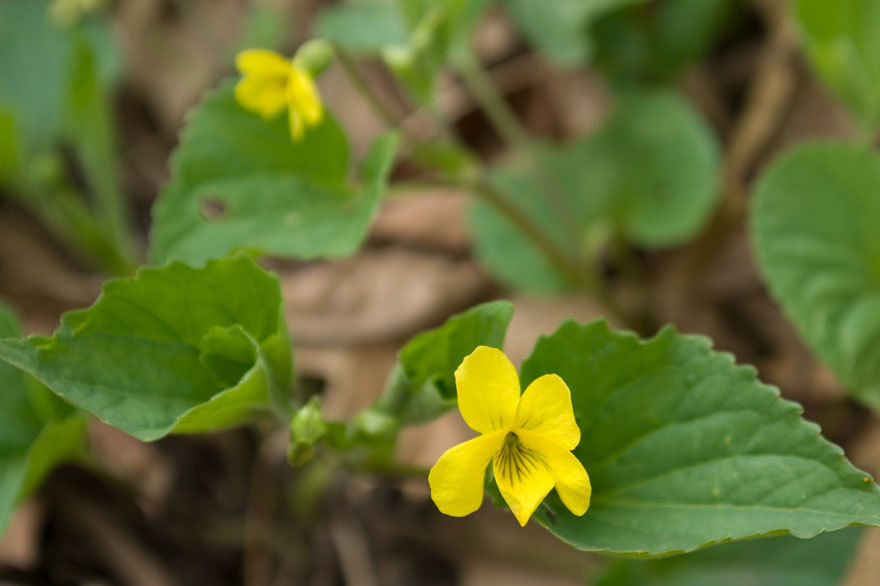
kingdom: Plantae
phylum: Tracheophyta
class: Magnoliopsida
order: Malpighiales
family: Violaceae
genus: Viola
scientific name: Viola eriocarpa
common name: Smooth yellow violet
